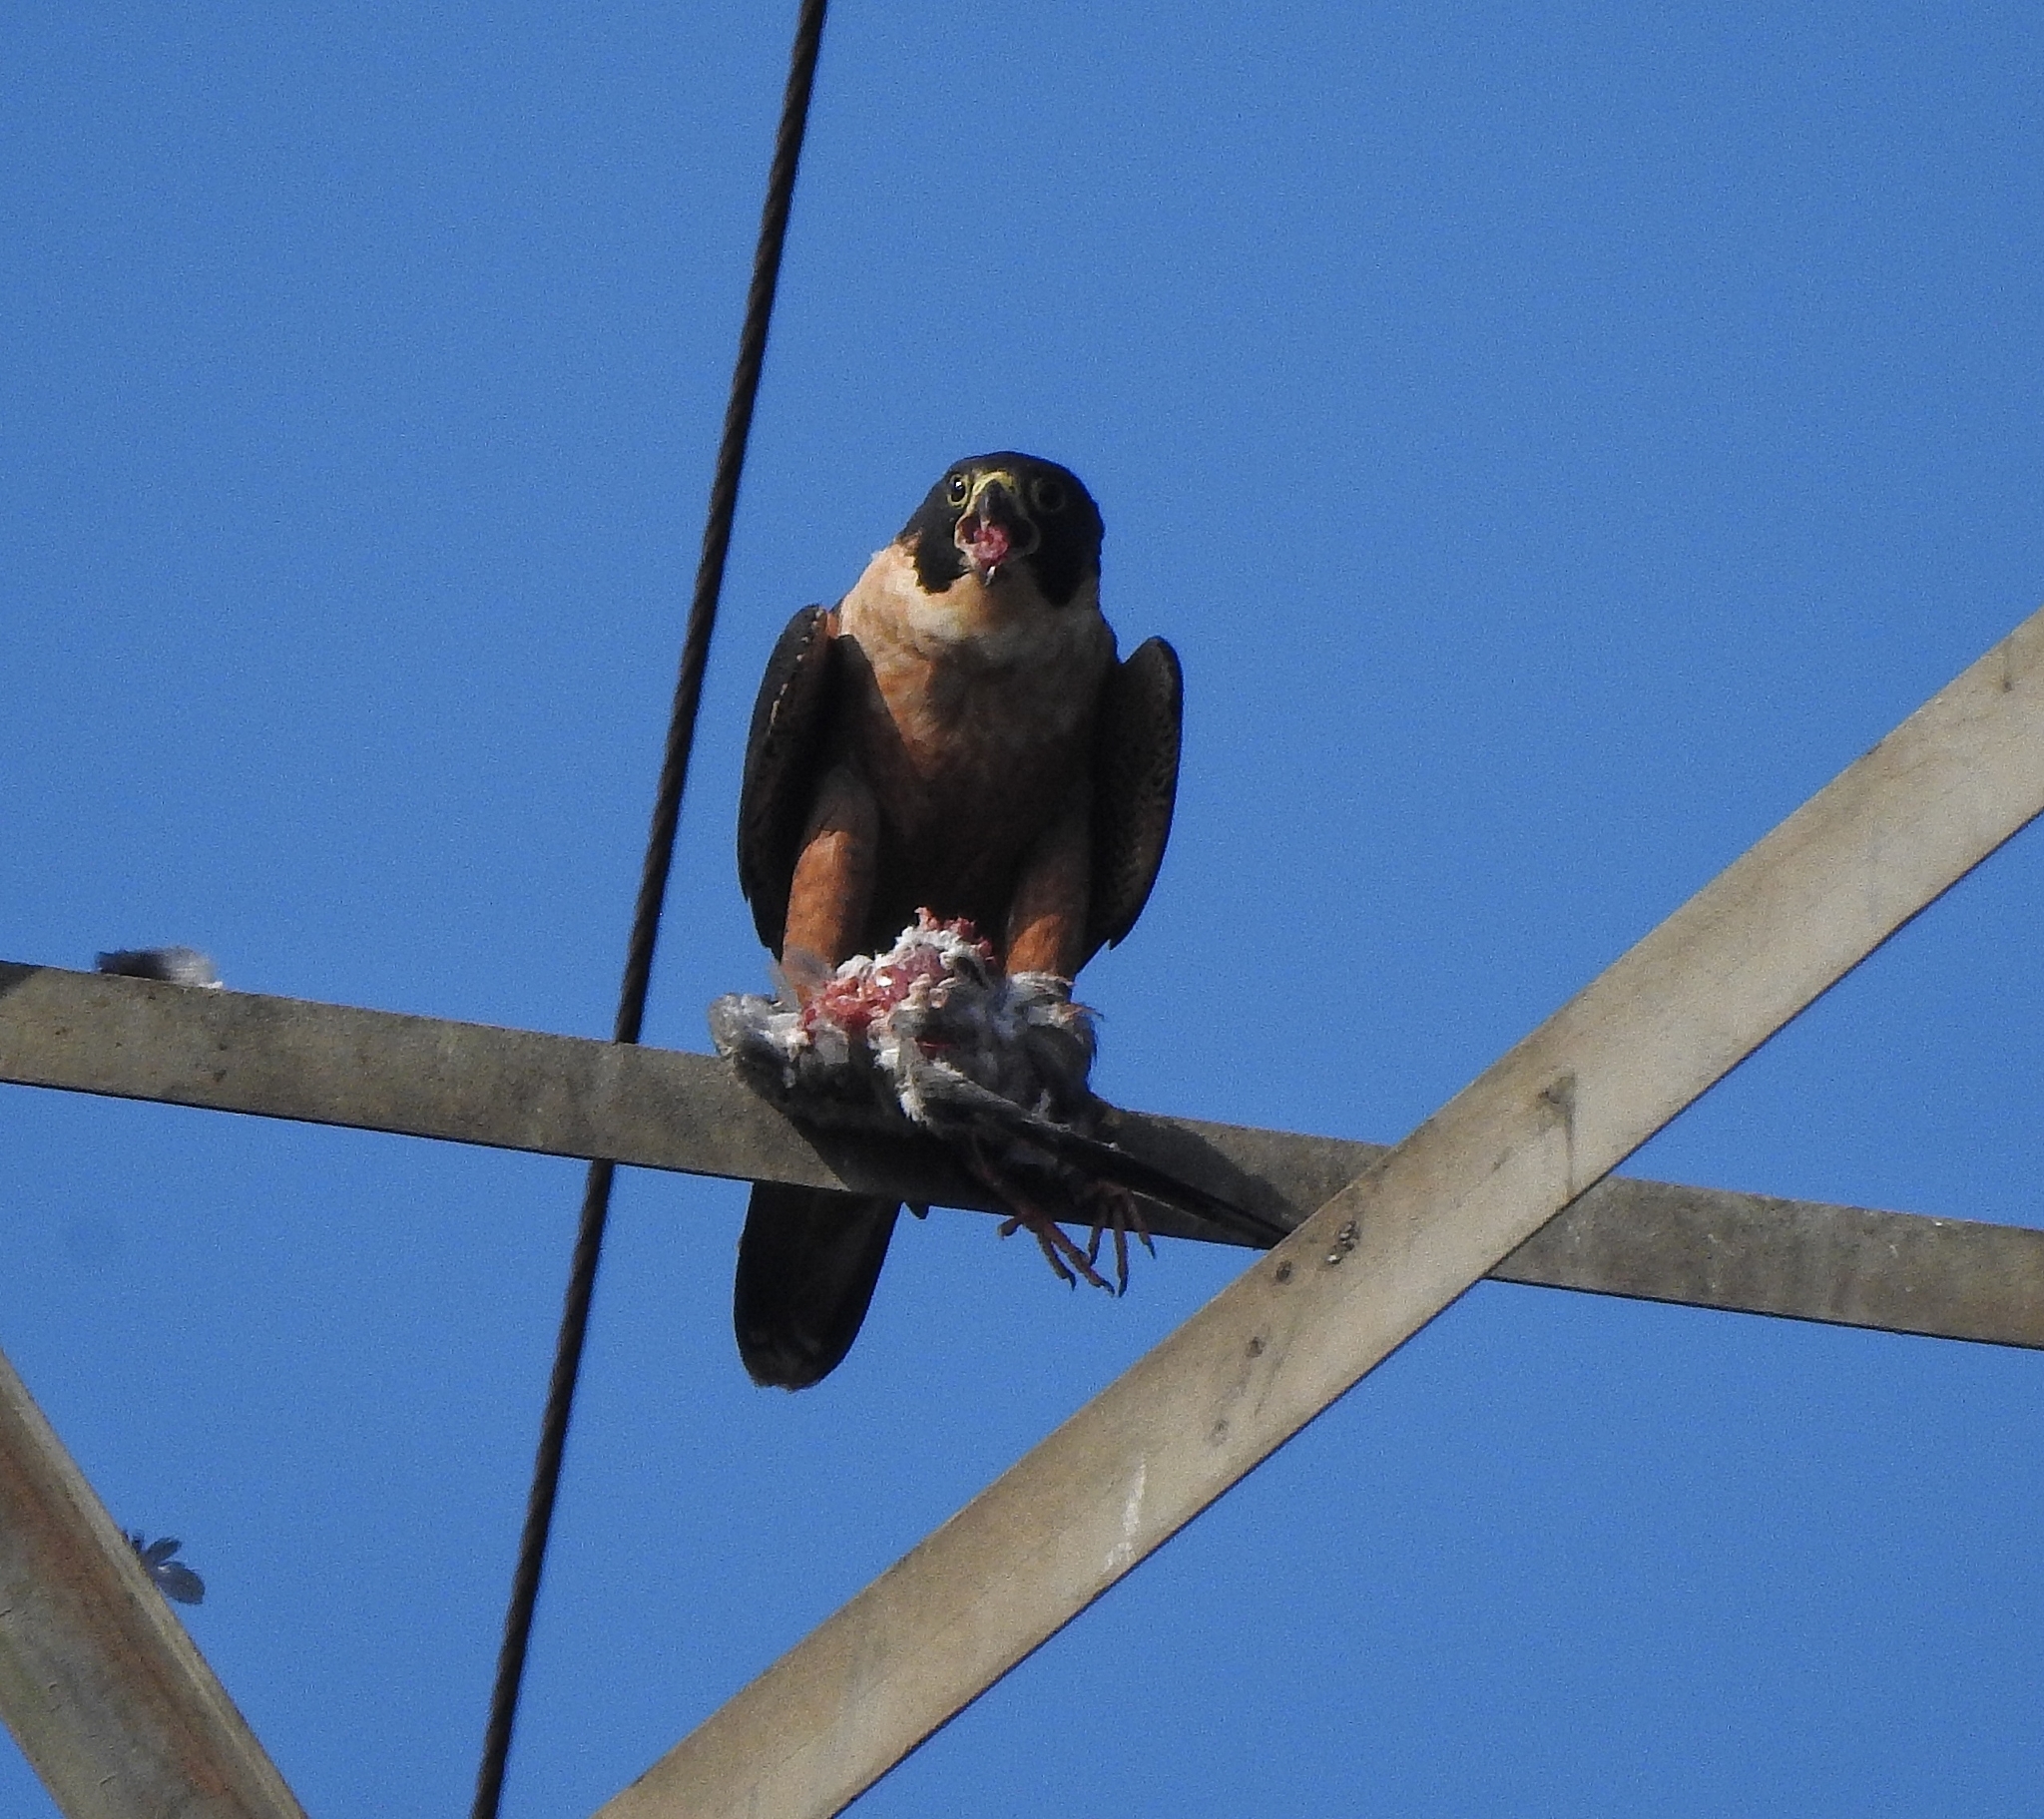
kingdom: Animalia
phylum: Chordata
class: Aves
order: Falconiformes
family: Falconidae
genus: Falco
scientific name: Falco peregrinus
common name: Peregrine falcon
